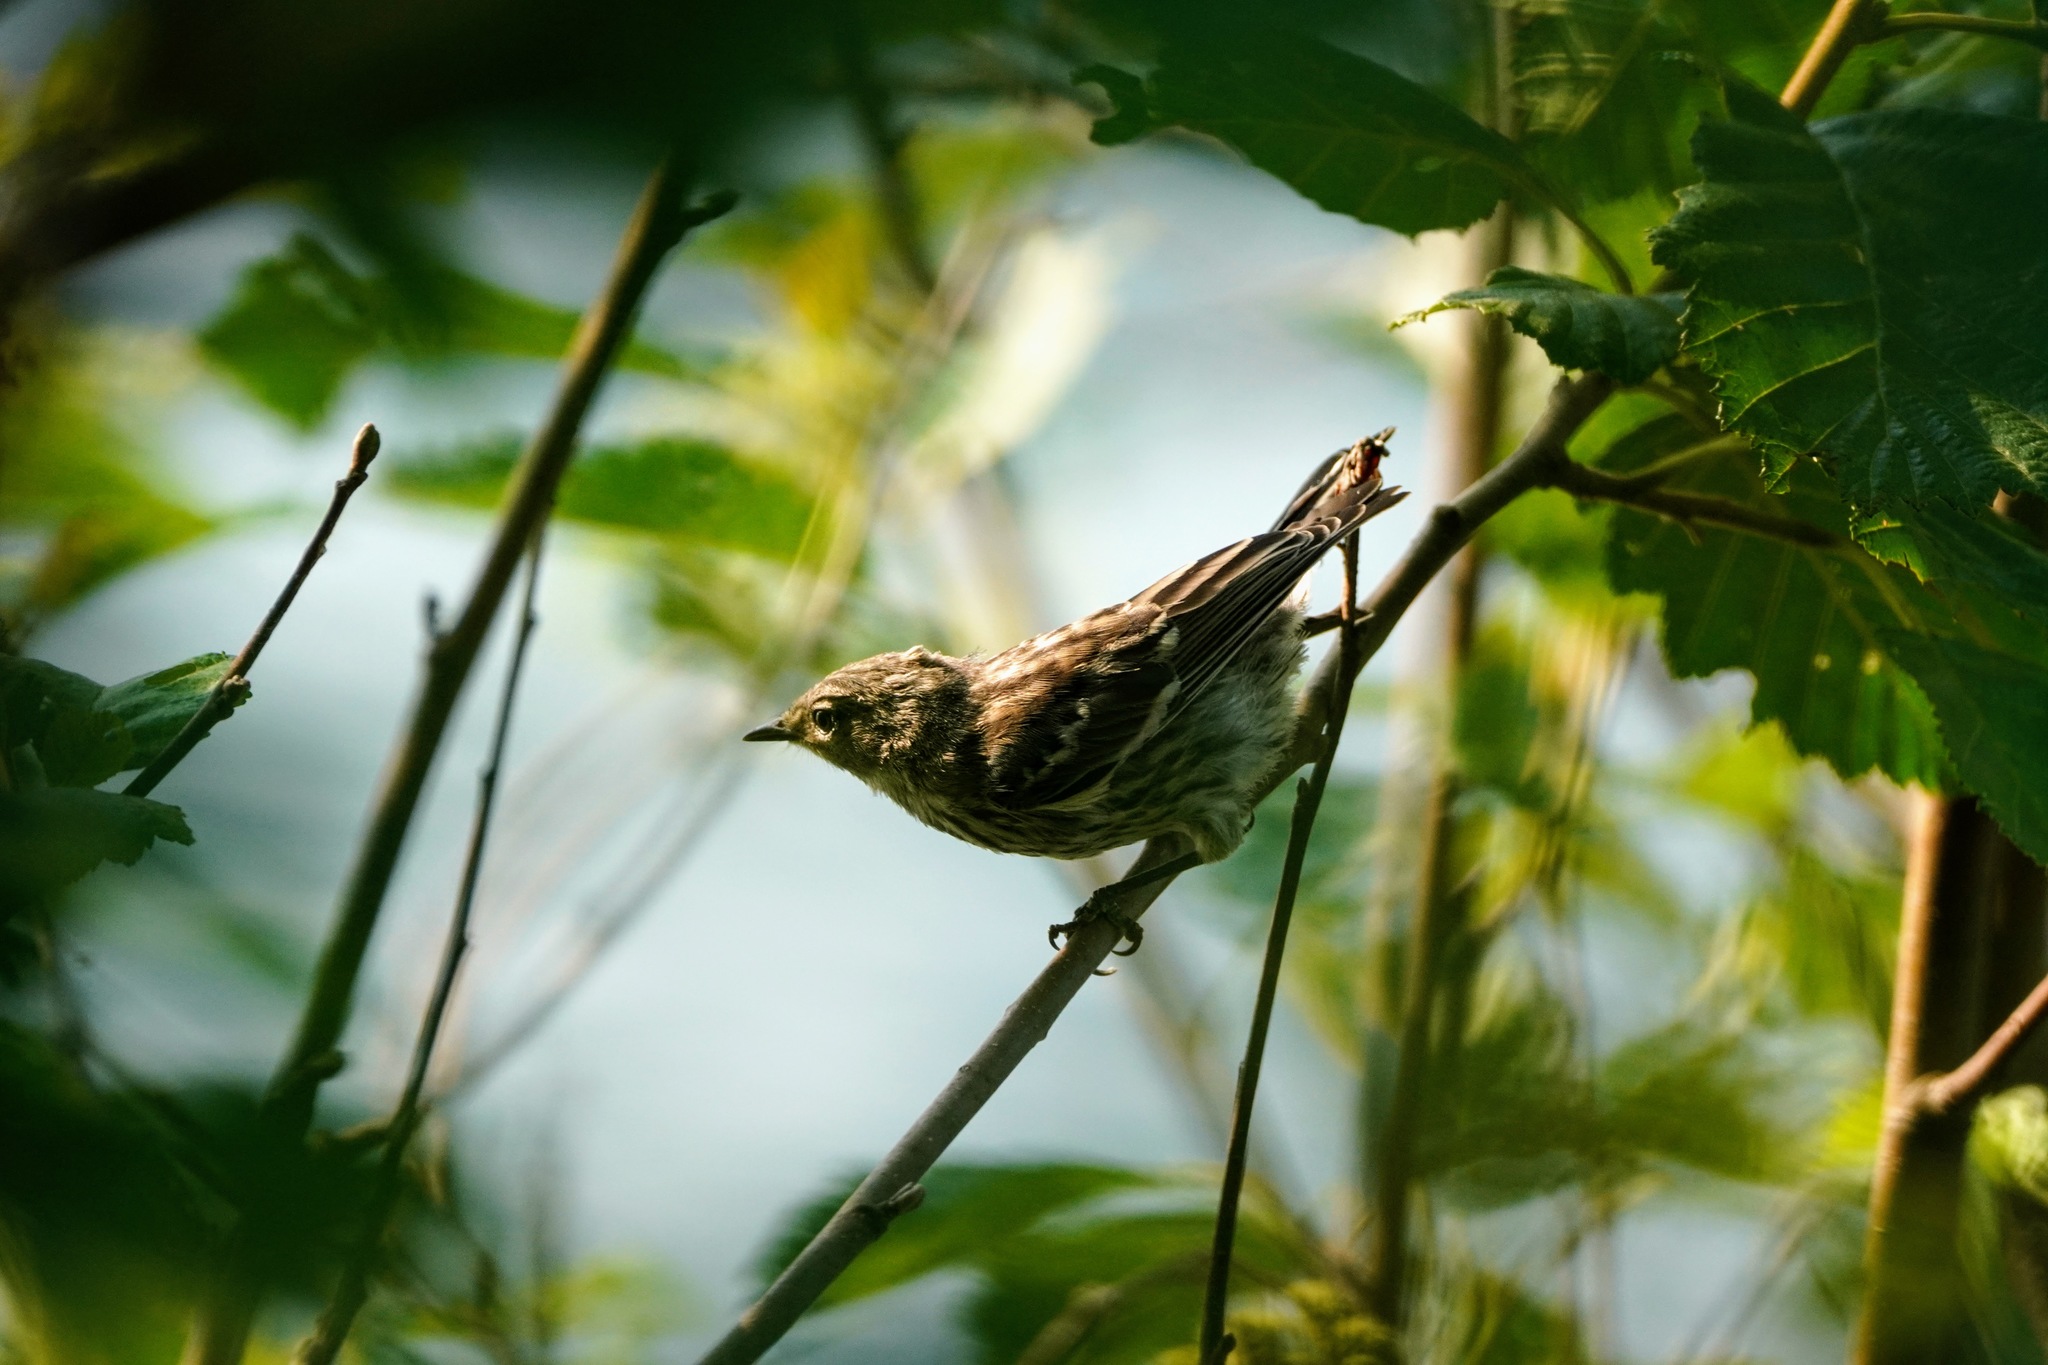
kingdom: Animalia
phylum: Chordata
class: Aves
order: Passeriformes
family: Parulidae
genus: Setophaga
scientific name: Setophaga coronata
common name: Myrtle warbler
